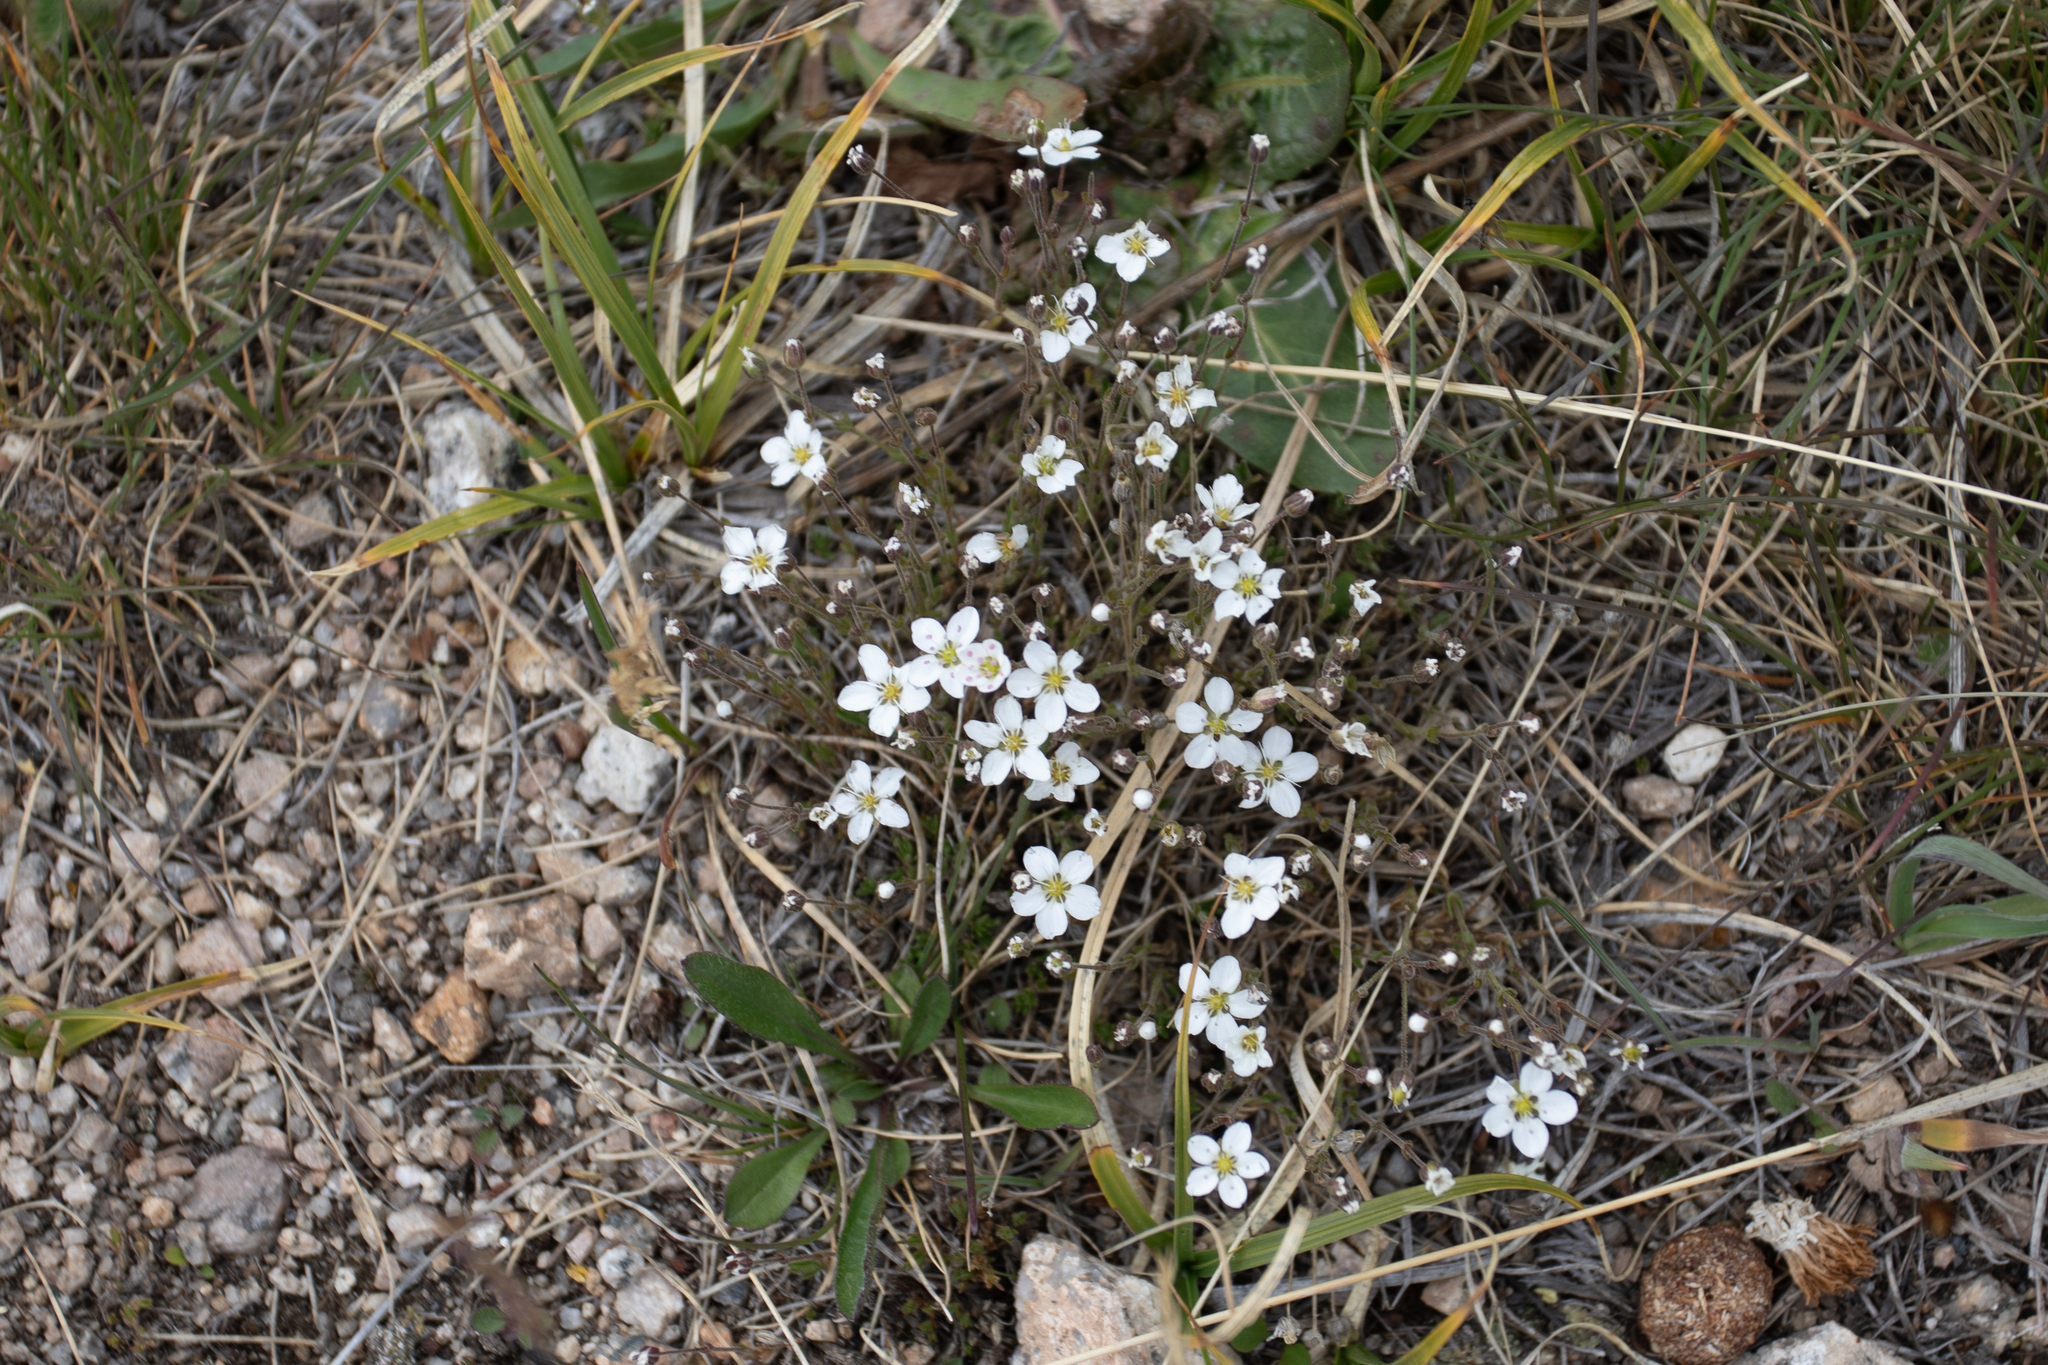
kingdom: Plantae
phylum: Tracheophyta
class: Magnoliopsida
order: Caryophyllales
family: Caryophyllaceae
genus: Sabulina
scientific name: Sabulina verna
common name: Spring sandwort
